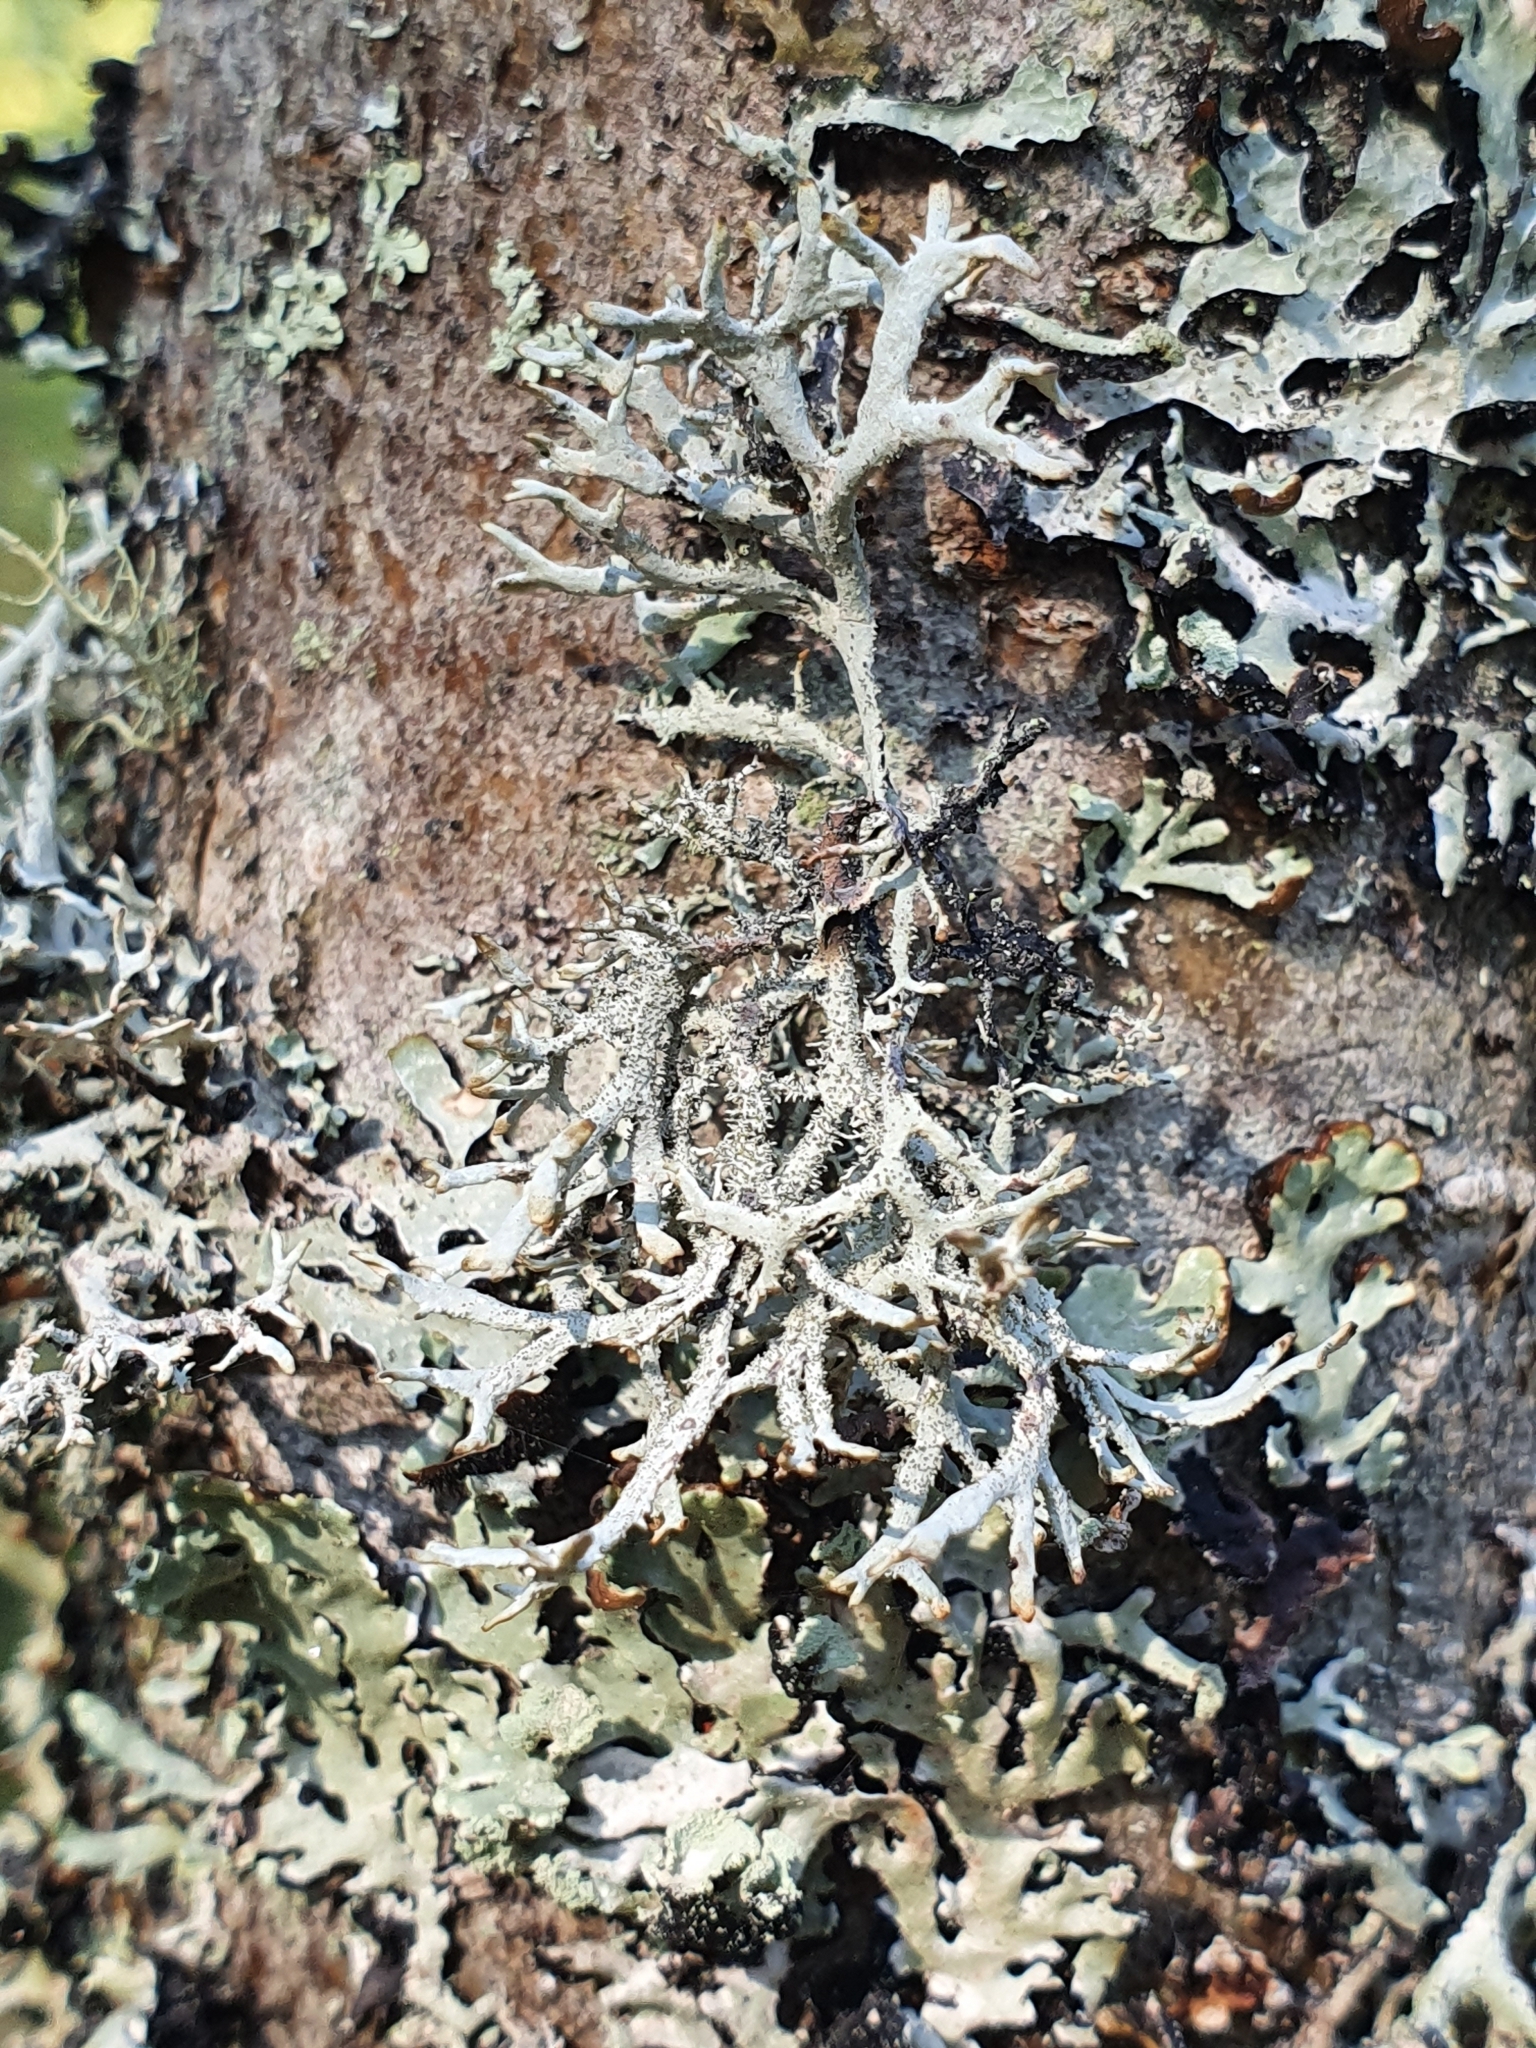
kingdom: Fungi
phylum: Ascomycota
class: Lecanoromycetes
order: Lecanorales
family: Parmeliaceae
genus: Pseudevernia
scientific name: Pseudevernia furfuracea
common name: Tree moss
